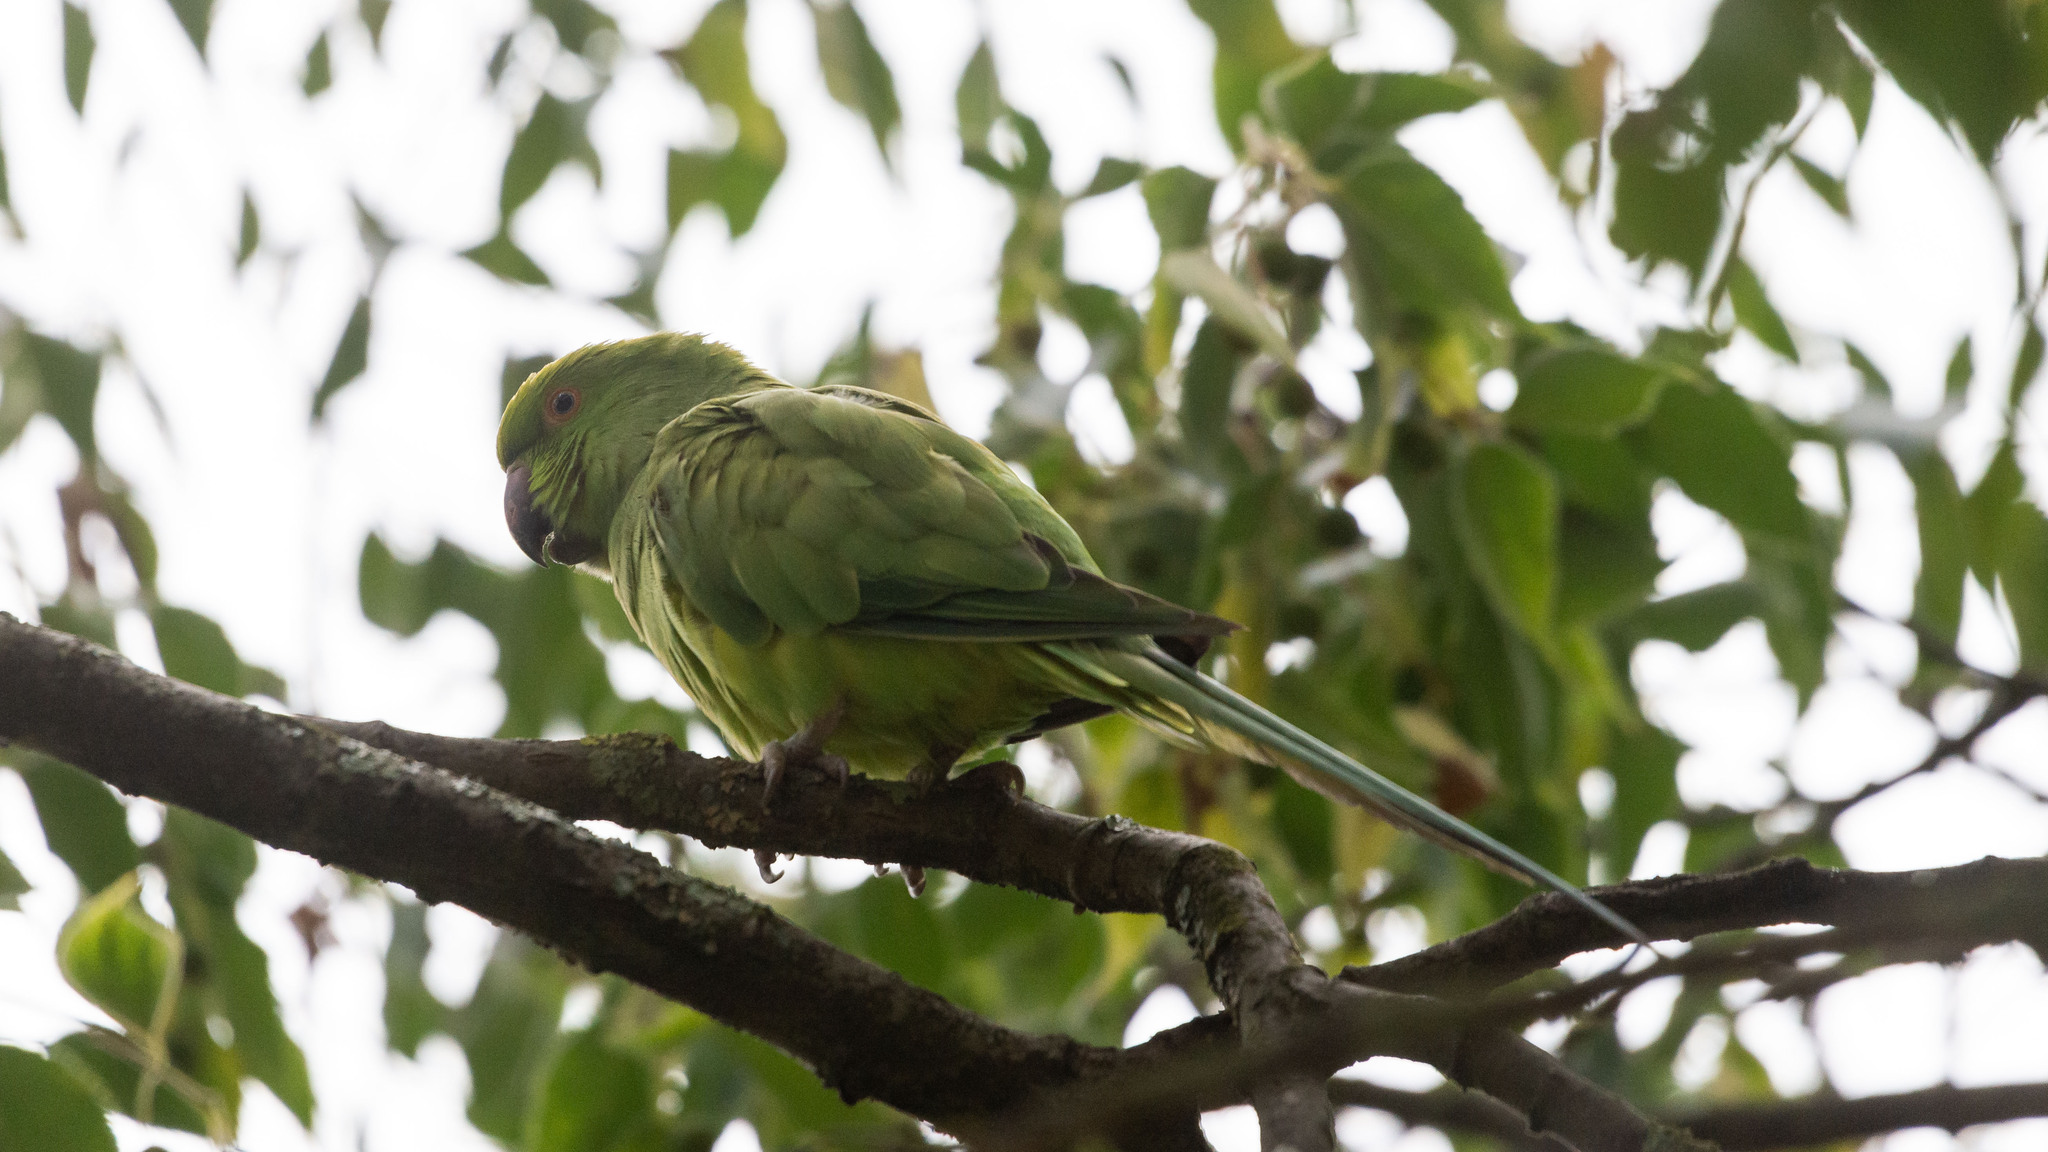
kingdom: Animalia
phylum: Chordata
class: Aves
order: Psittaciformes
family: Psittacidae
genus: Psittacula
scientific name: Psittacula krameri
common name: Rose-ringed parakeet
